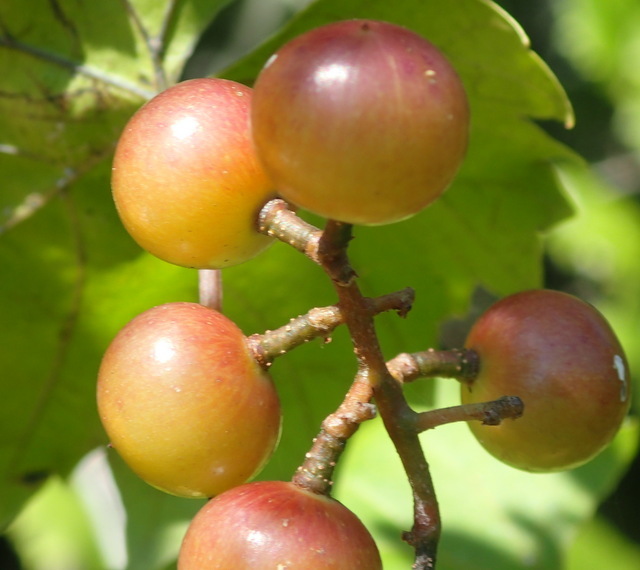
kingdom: Plantae
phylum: Tracheophyta
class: Magnoliopsida
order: Vitales
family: Vitaceae
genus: Vitis
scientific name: Vitis rotundifolia
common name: Muscadine grape
